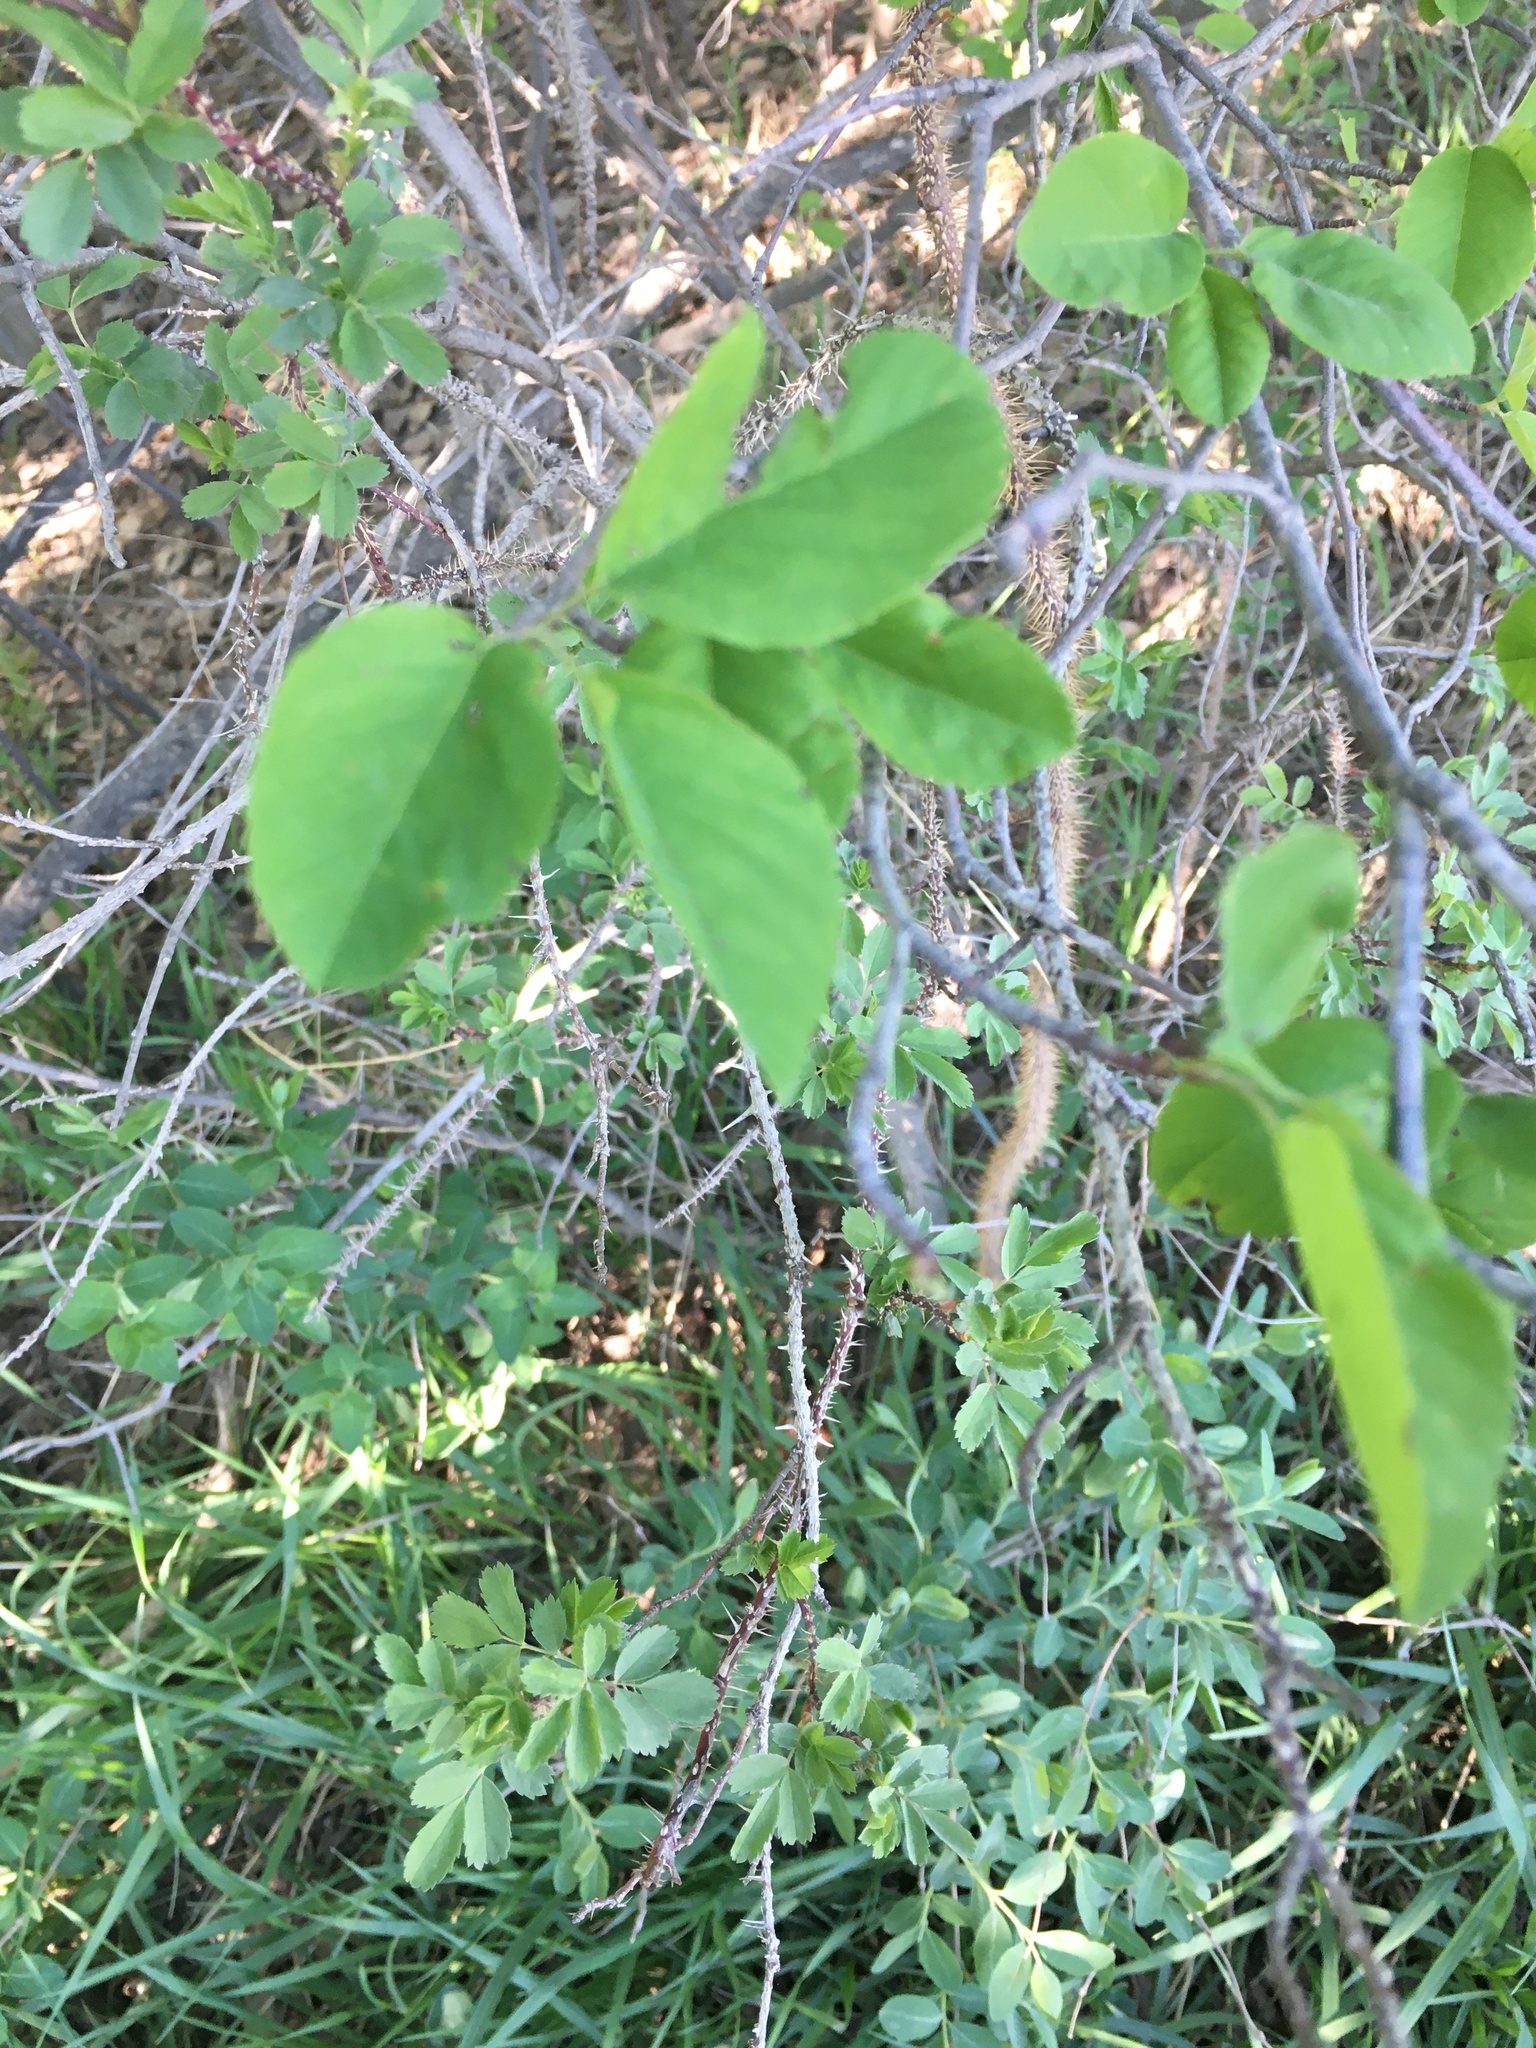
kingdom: Plantae
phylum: Tracheophyta
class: Magnoliopsida
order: Rosales
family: Rosaceae
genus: Amelanchier
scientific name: Amelanchier alnifolia
